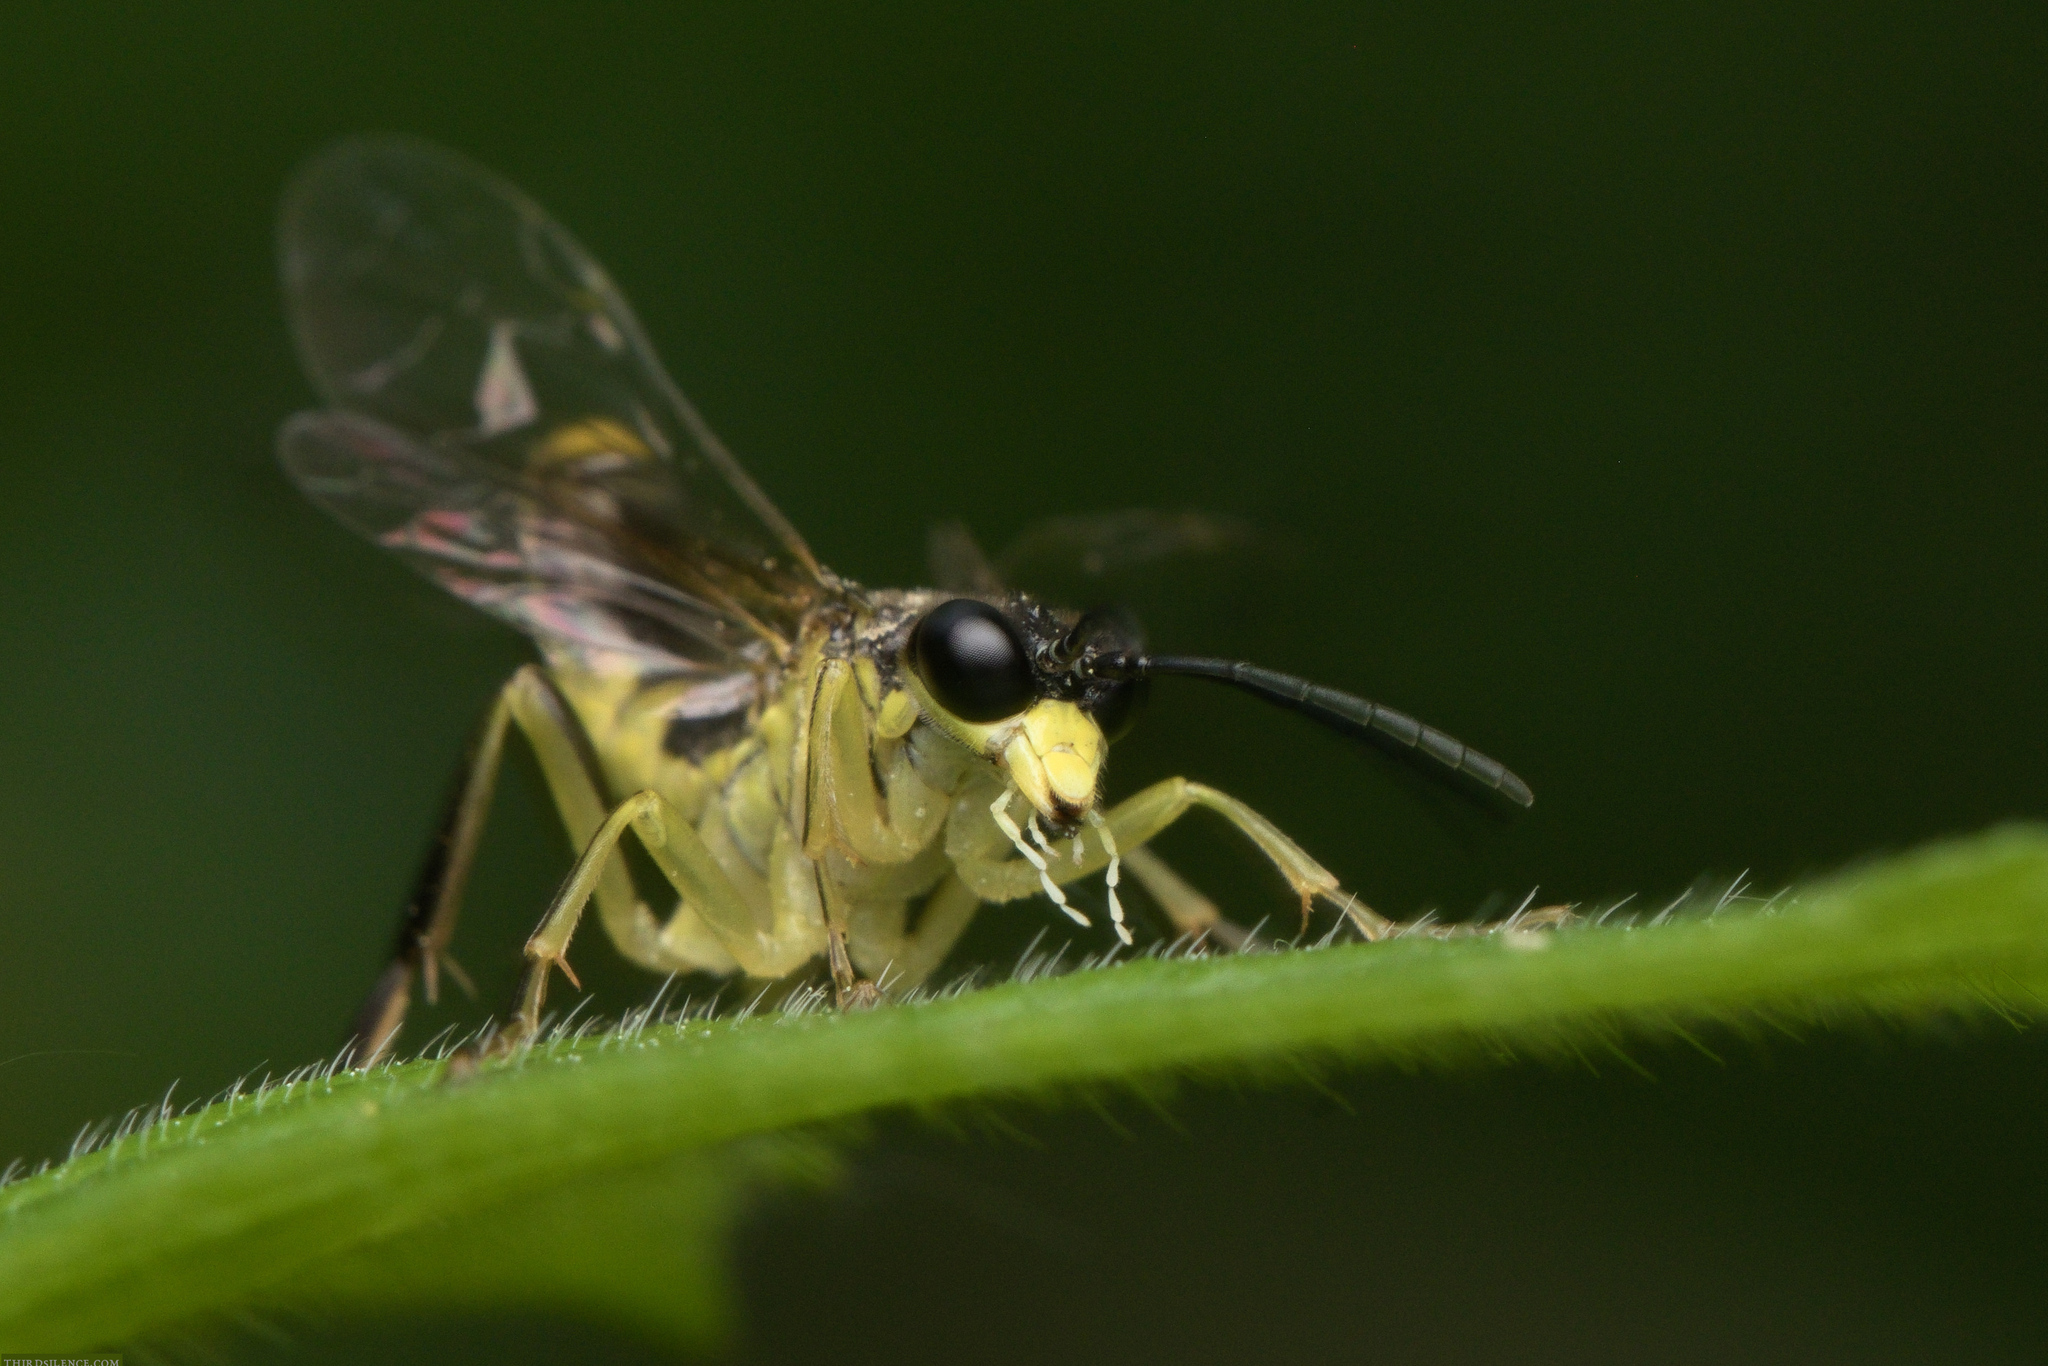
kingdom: Animalia
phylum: Arthropoda
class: Insecta
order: Hymenoptera
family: Tenthredinidae
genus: Tenthredo
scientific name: Tenthredo temula
